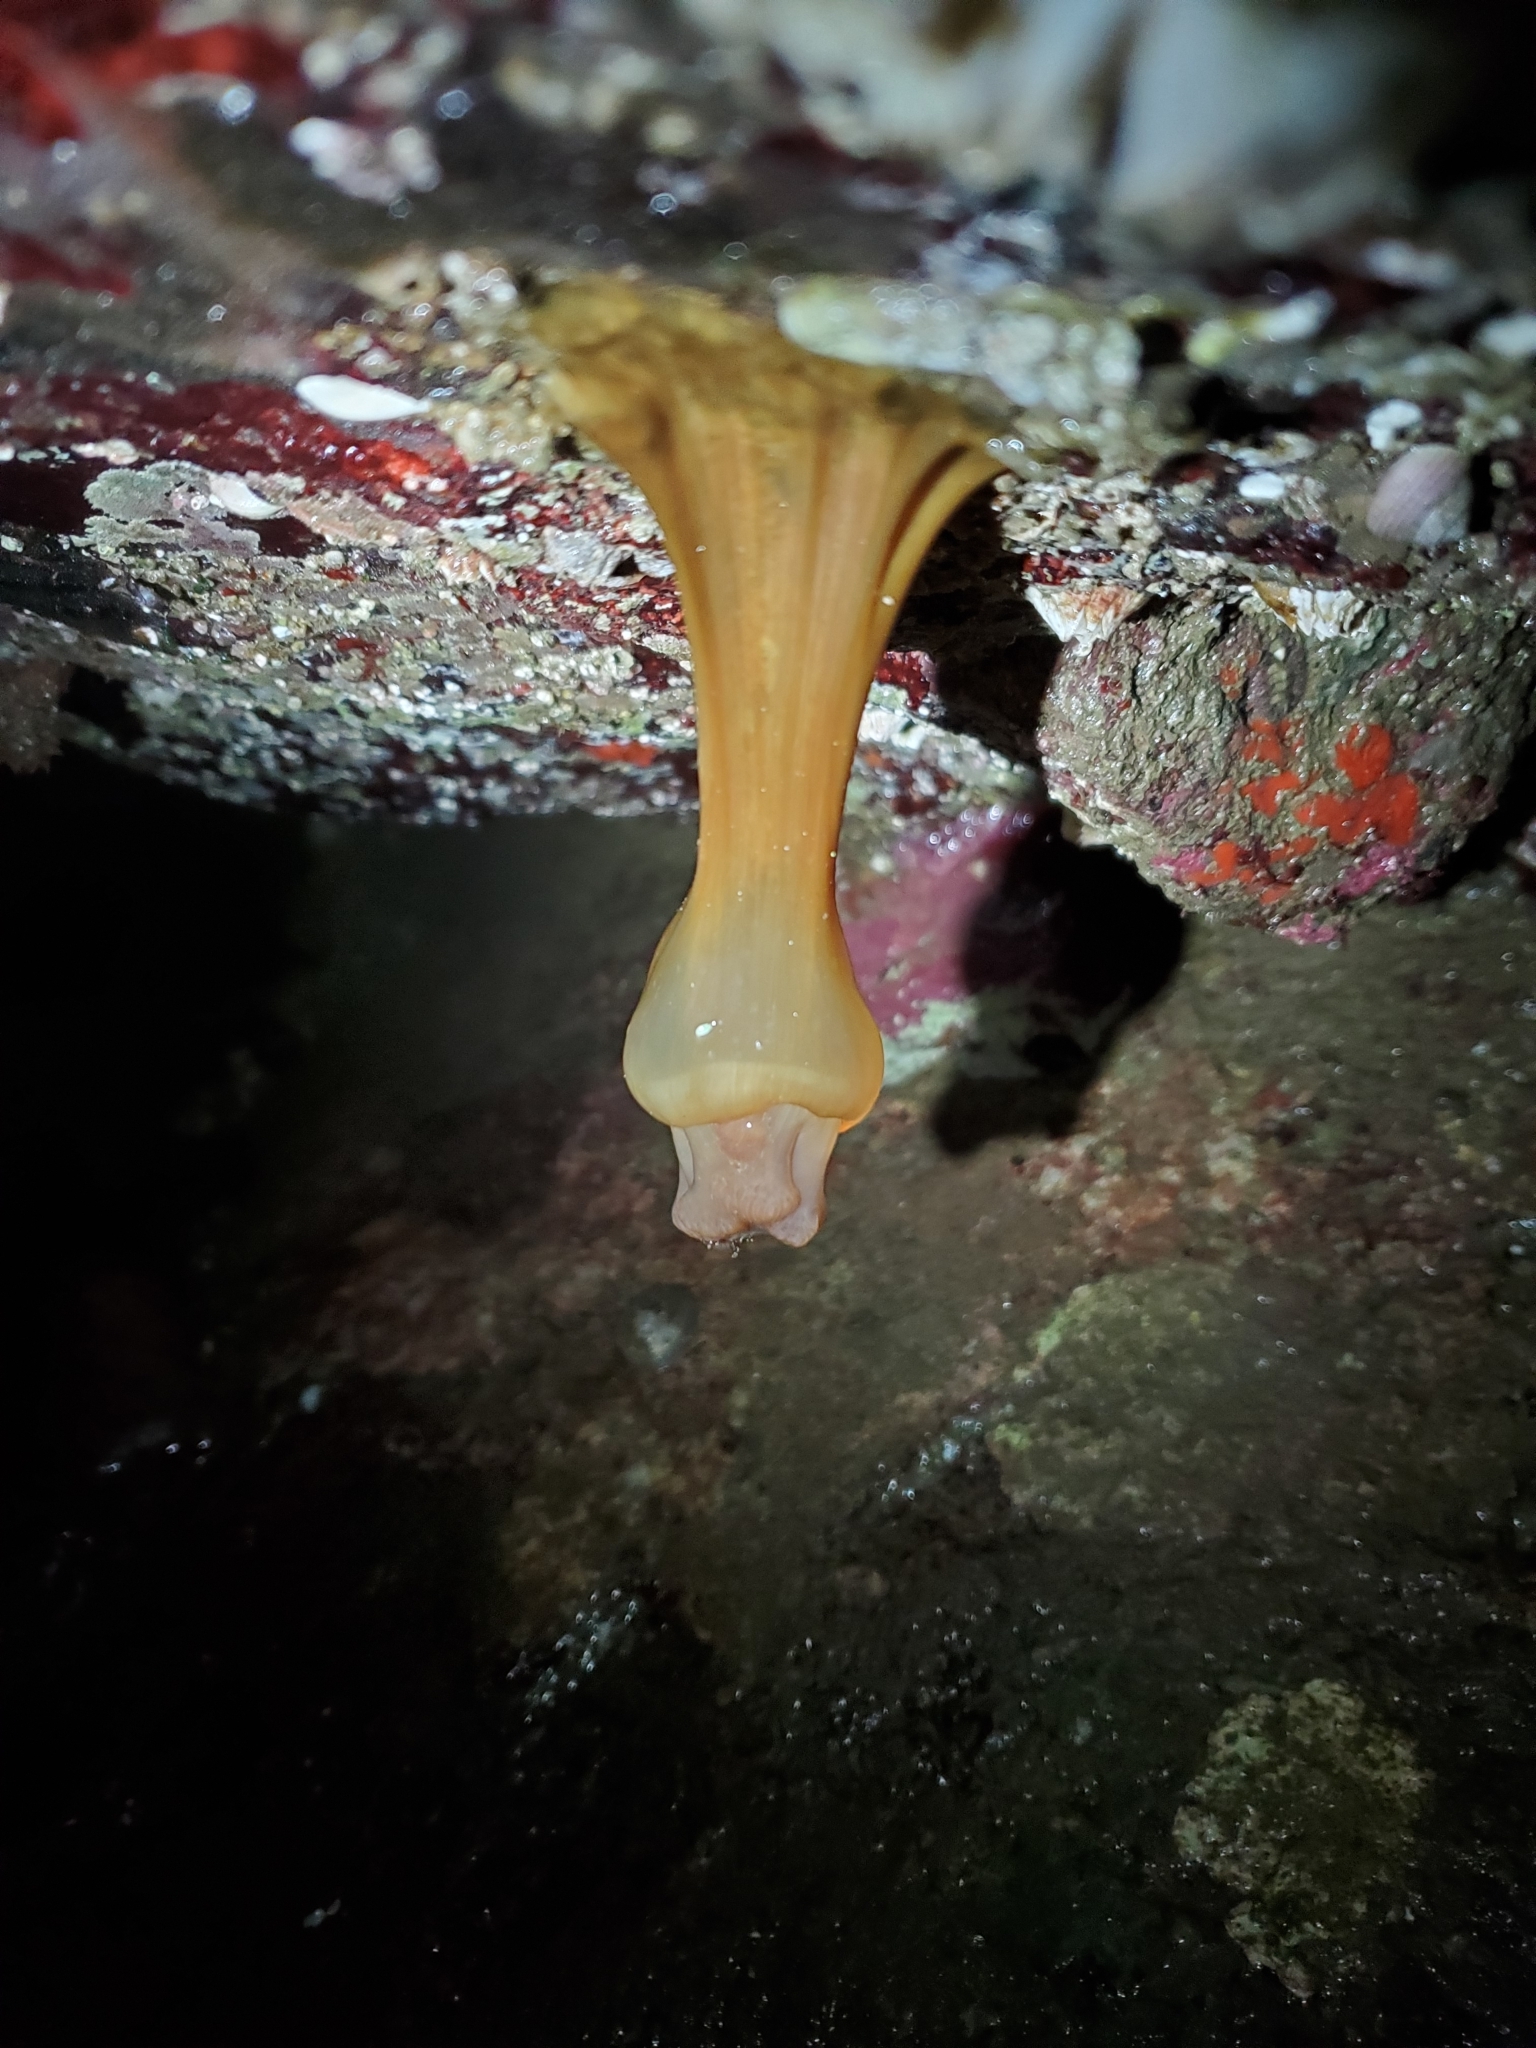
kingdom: Animalia
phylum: Cnidaria
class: Anthozoa
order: Actiniaria
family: Metridiidae
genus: Metridium
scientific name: Metridium senile
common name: Clonal plumose anemone
